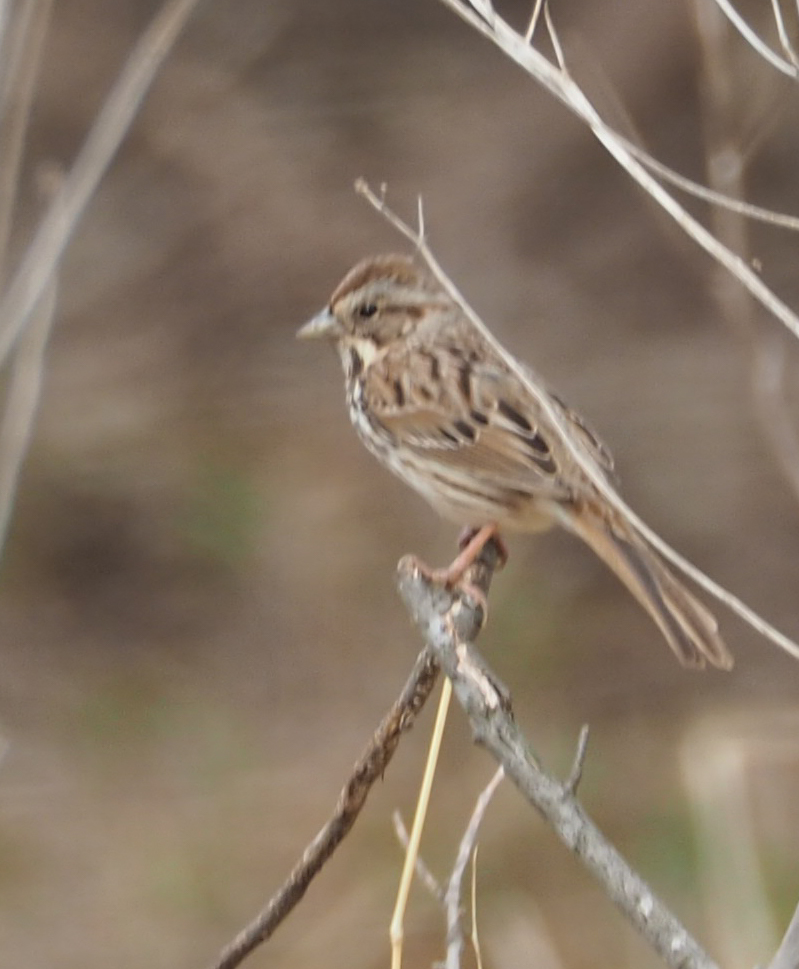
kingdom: Animalia
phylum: Chordata
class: Aves
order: Passeriformes
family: Passerellidae
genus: Melospiza
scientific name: Melospiza melodia
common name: Song sparrow
